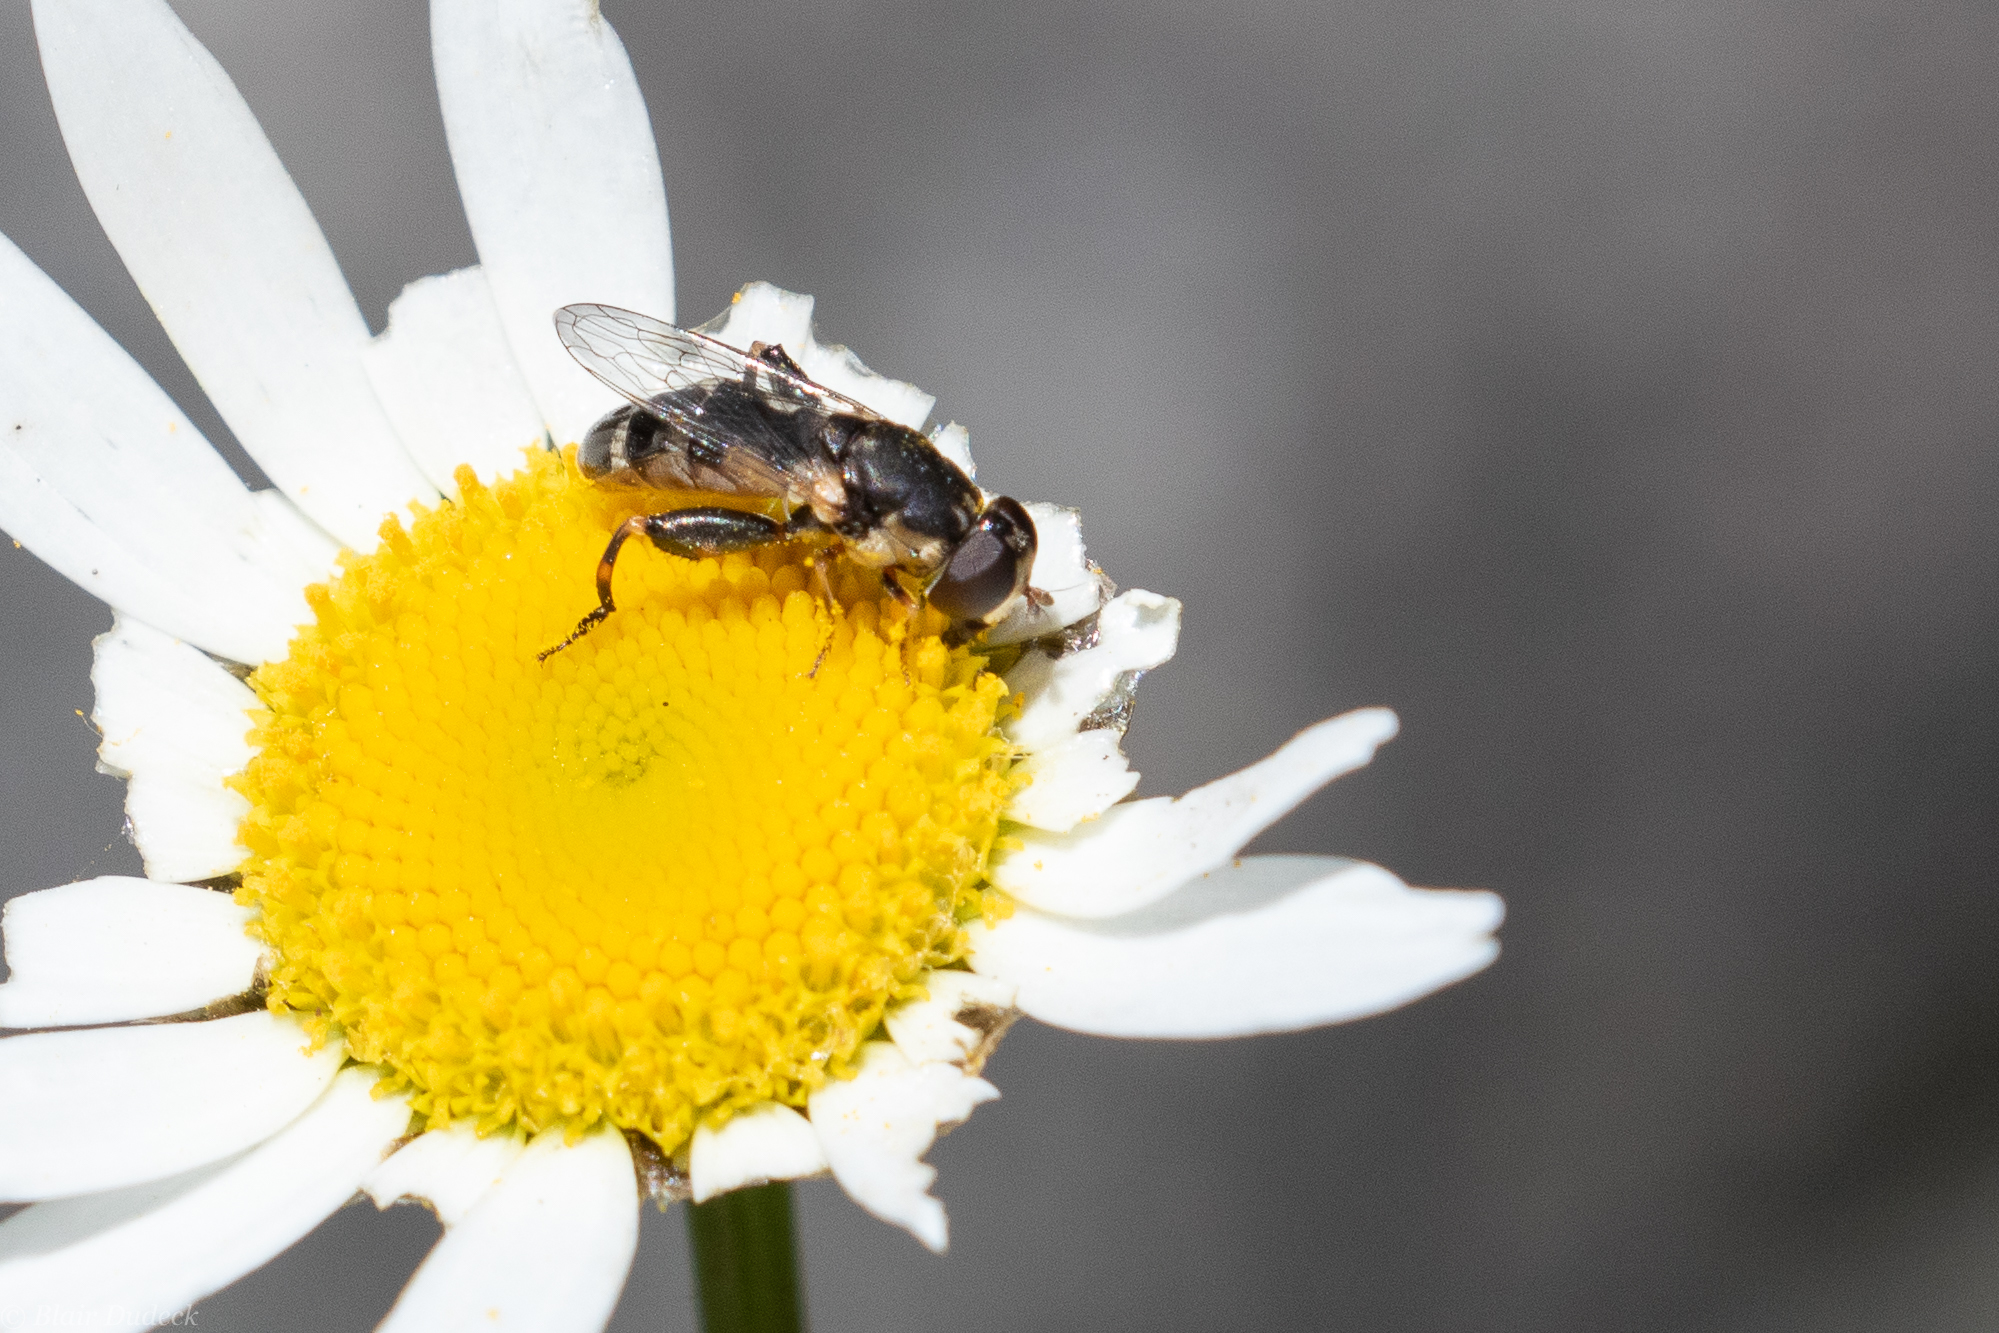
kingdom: Animalia
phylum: Arthropoda
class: Insecta
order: Diptera
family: Syrphidae
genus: Syritta
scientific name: Syritta pipiens
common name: Hover fly
